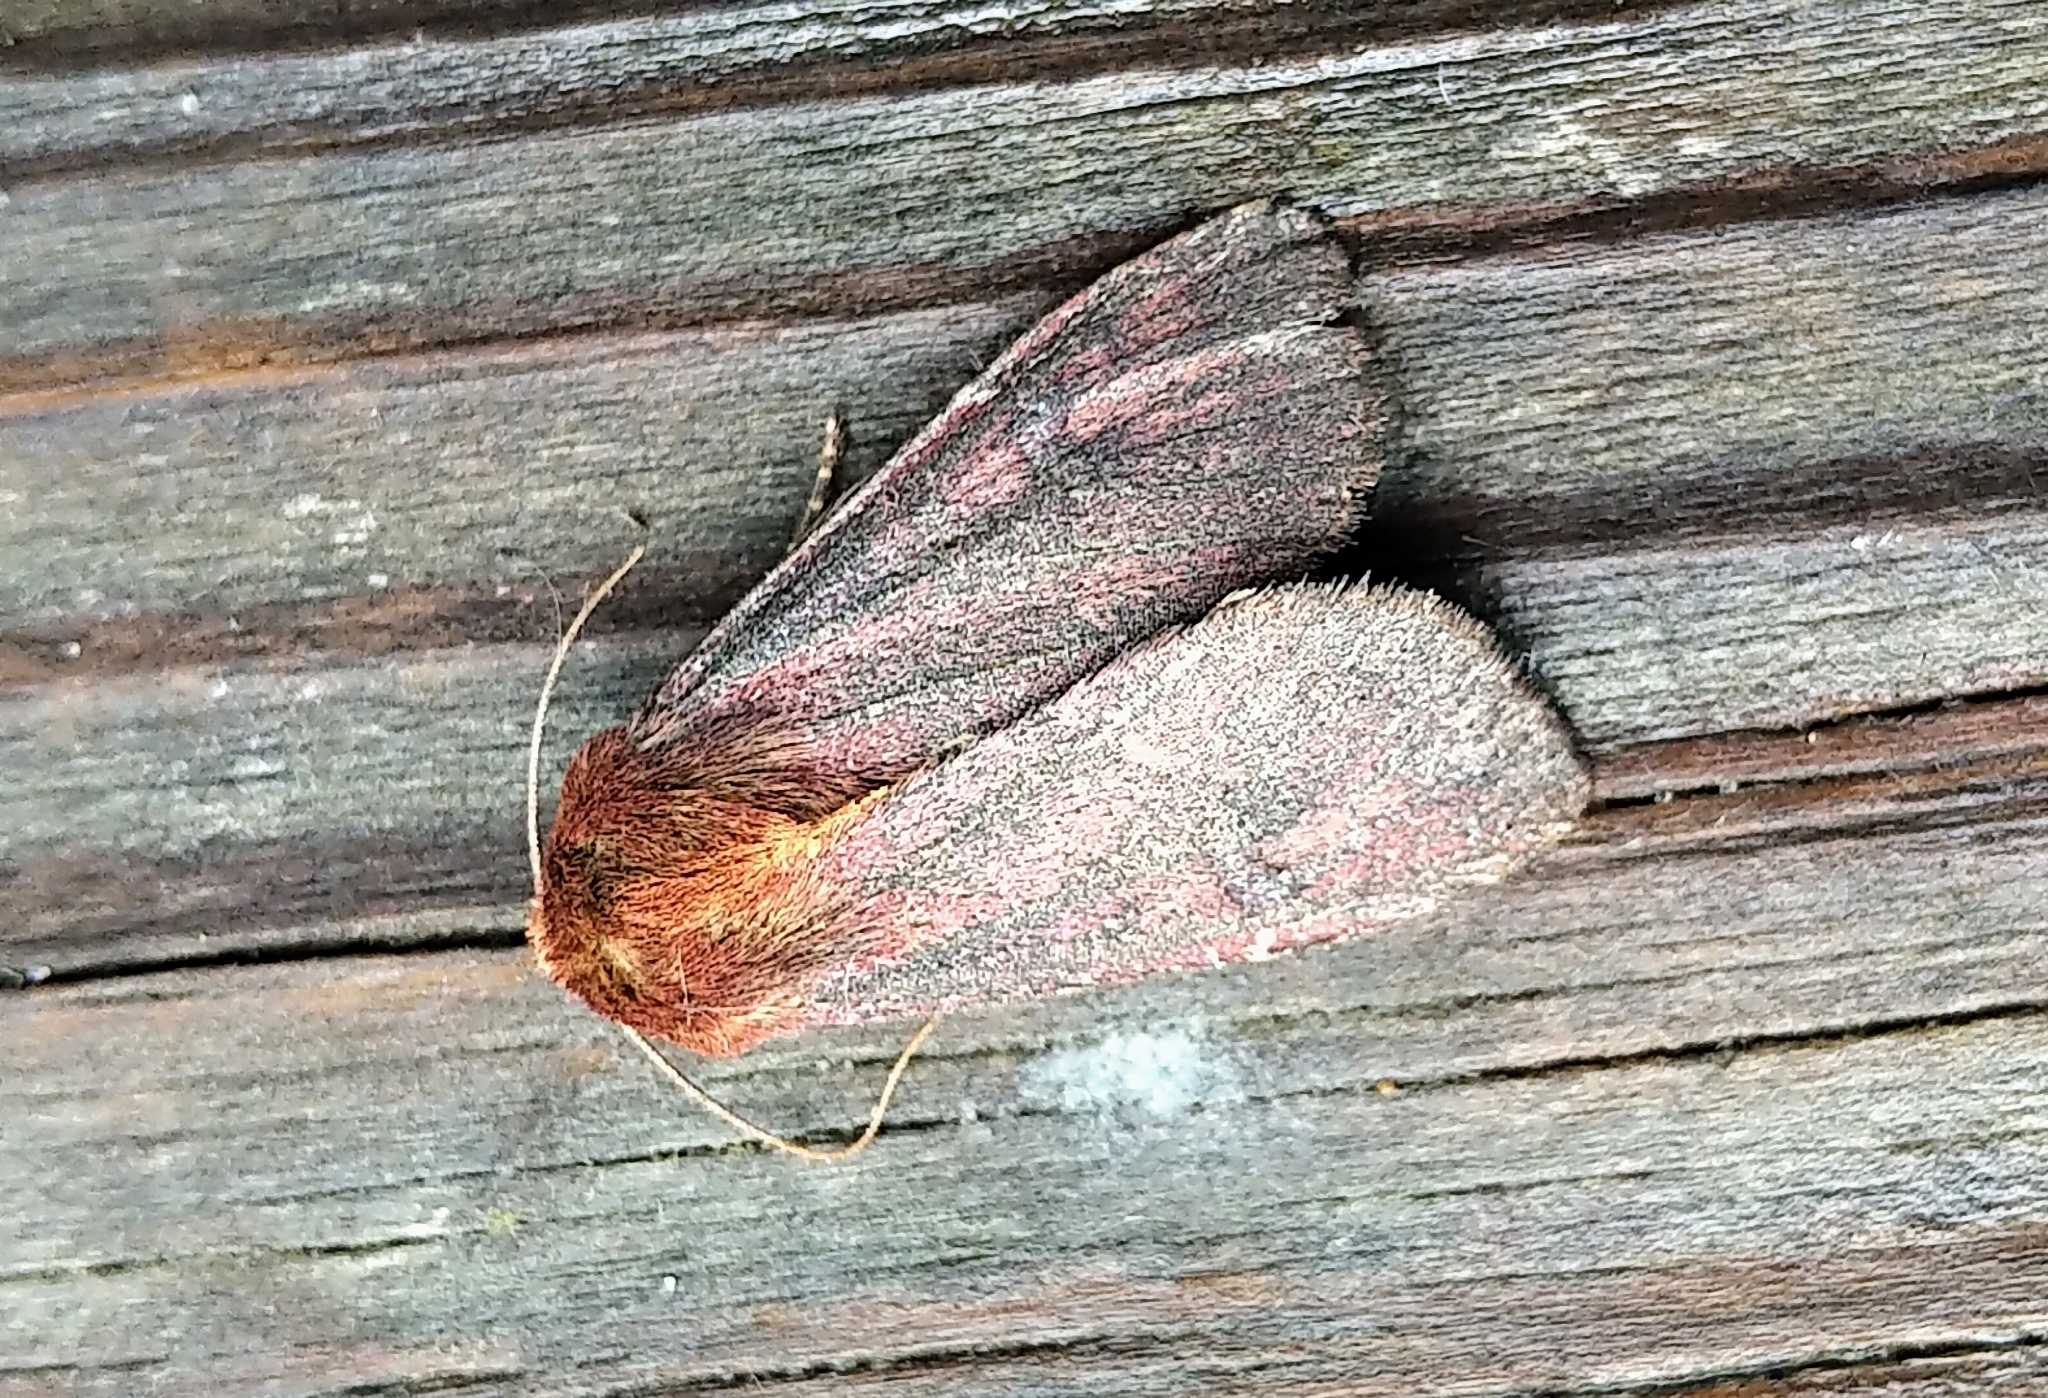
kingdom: Animalia
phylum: Arthropoda
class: Insecta
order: Lepidoptera
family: Noctuidae
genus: Sideridis
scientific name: Sideridis maryx
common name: Maroonwing moth
